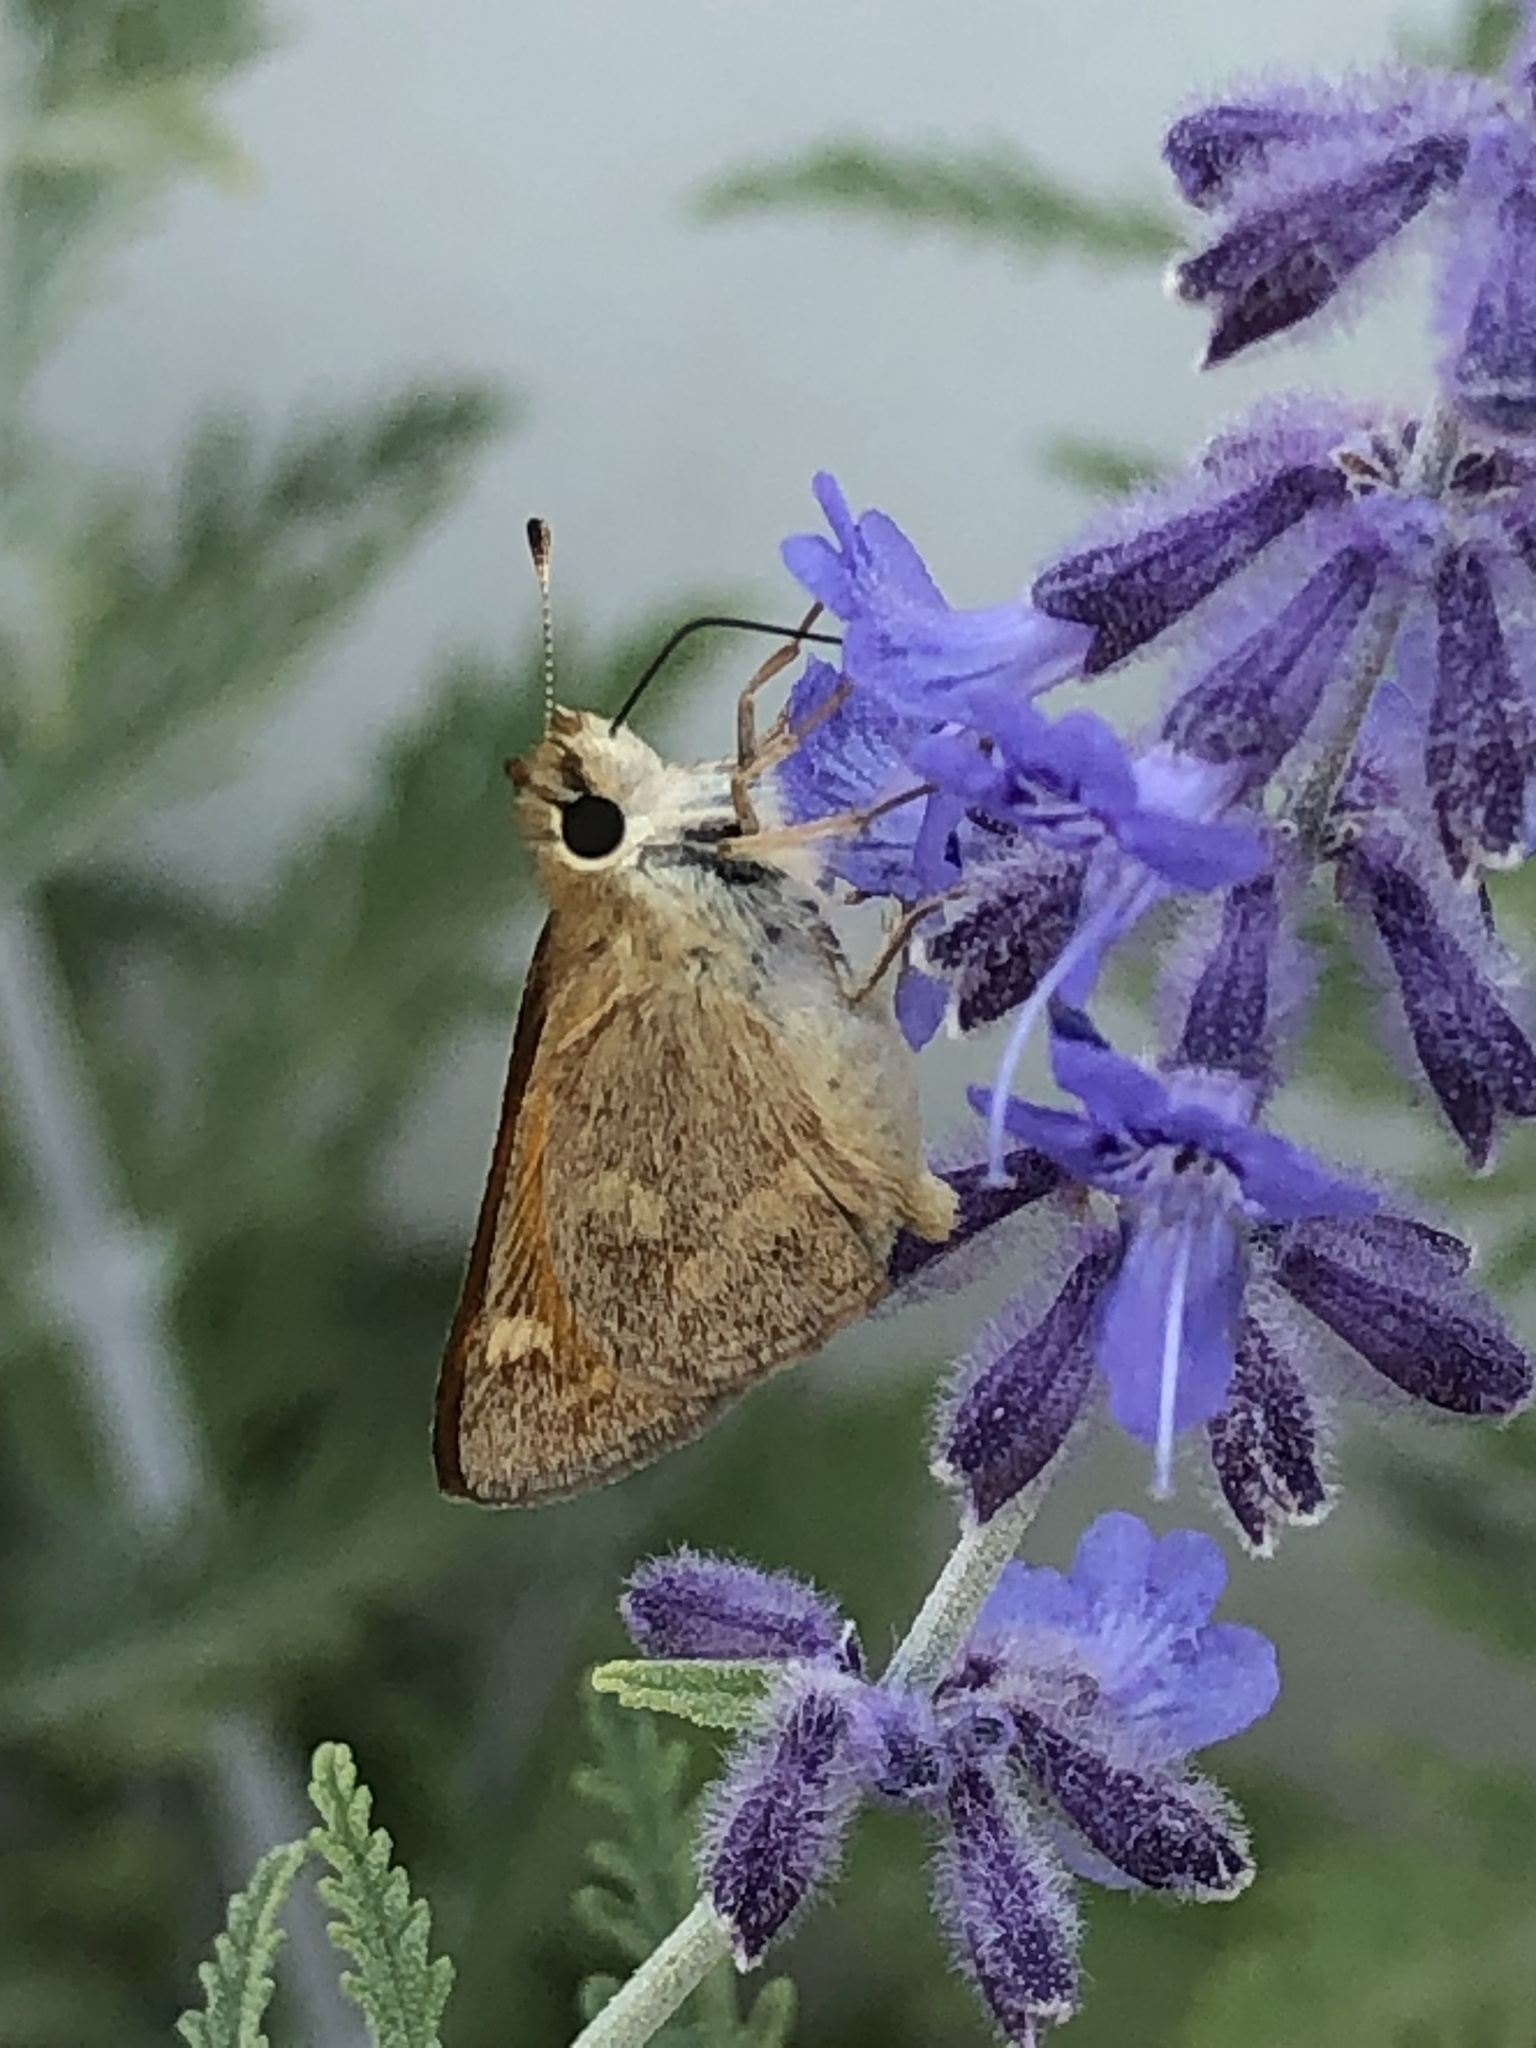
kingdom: Animalia
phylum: Arthropoda
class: Insecta
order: Lepidoptera
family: Hesperiidae
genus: Ochlodes
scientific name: Ochlodes sylvanoides
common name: Woodland skipper
